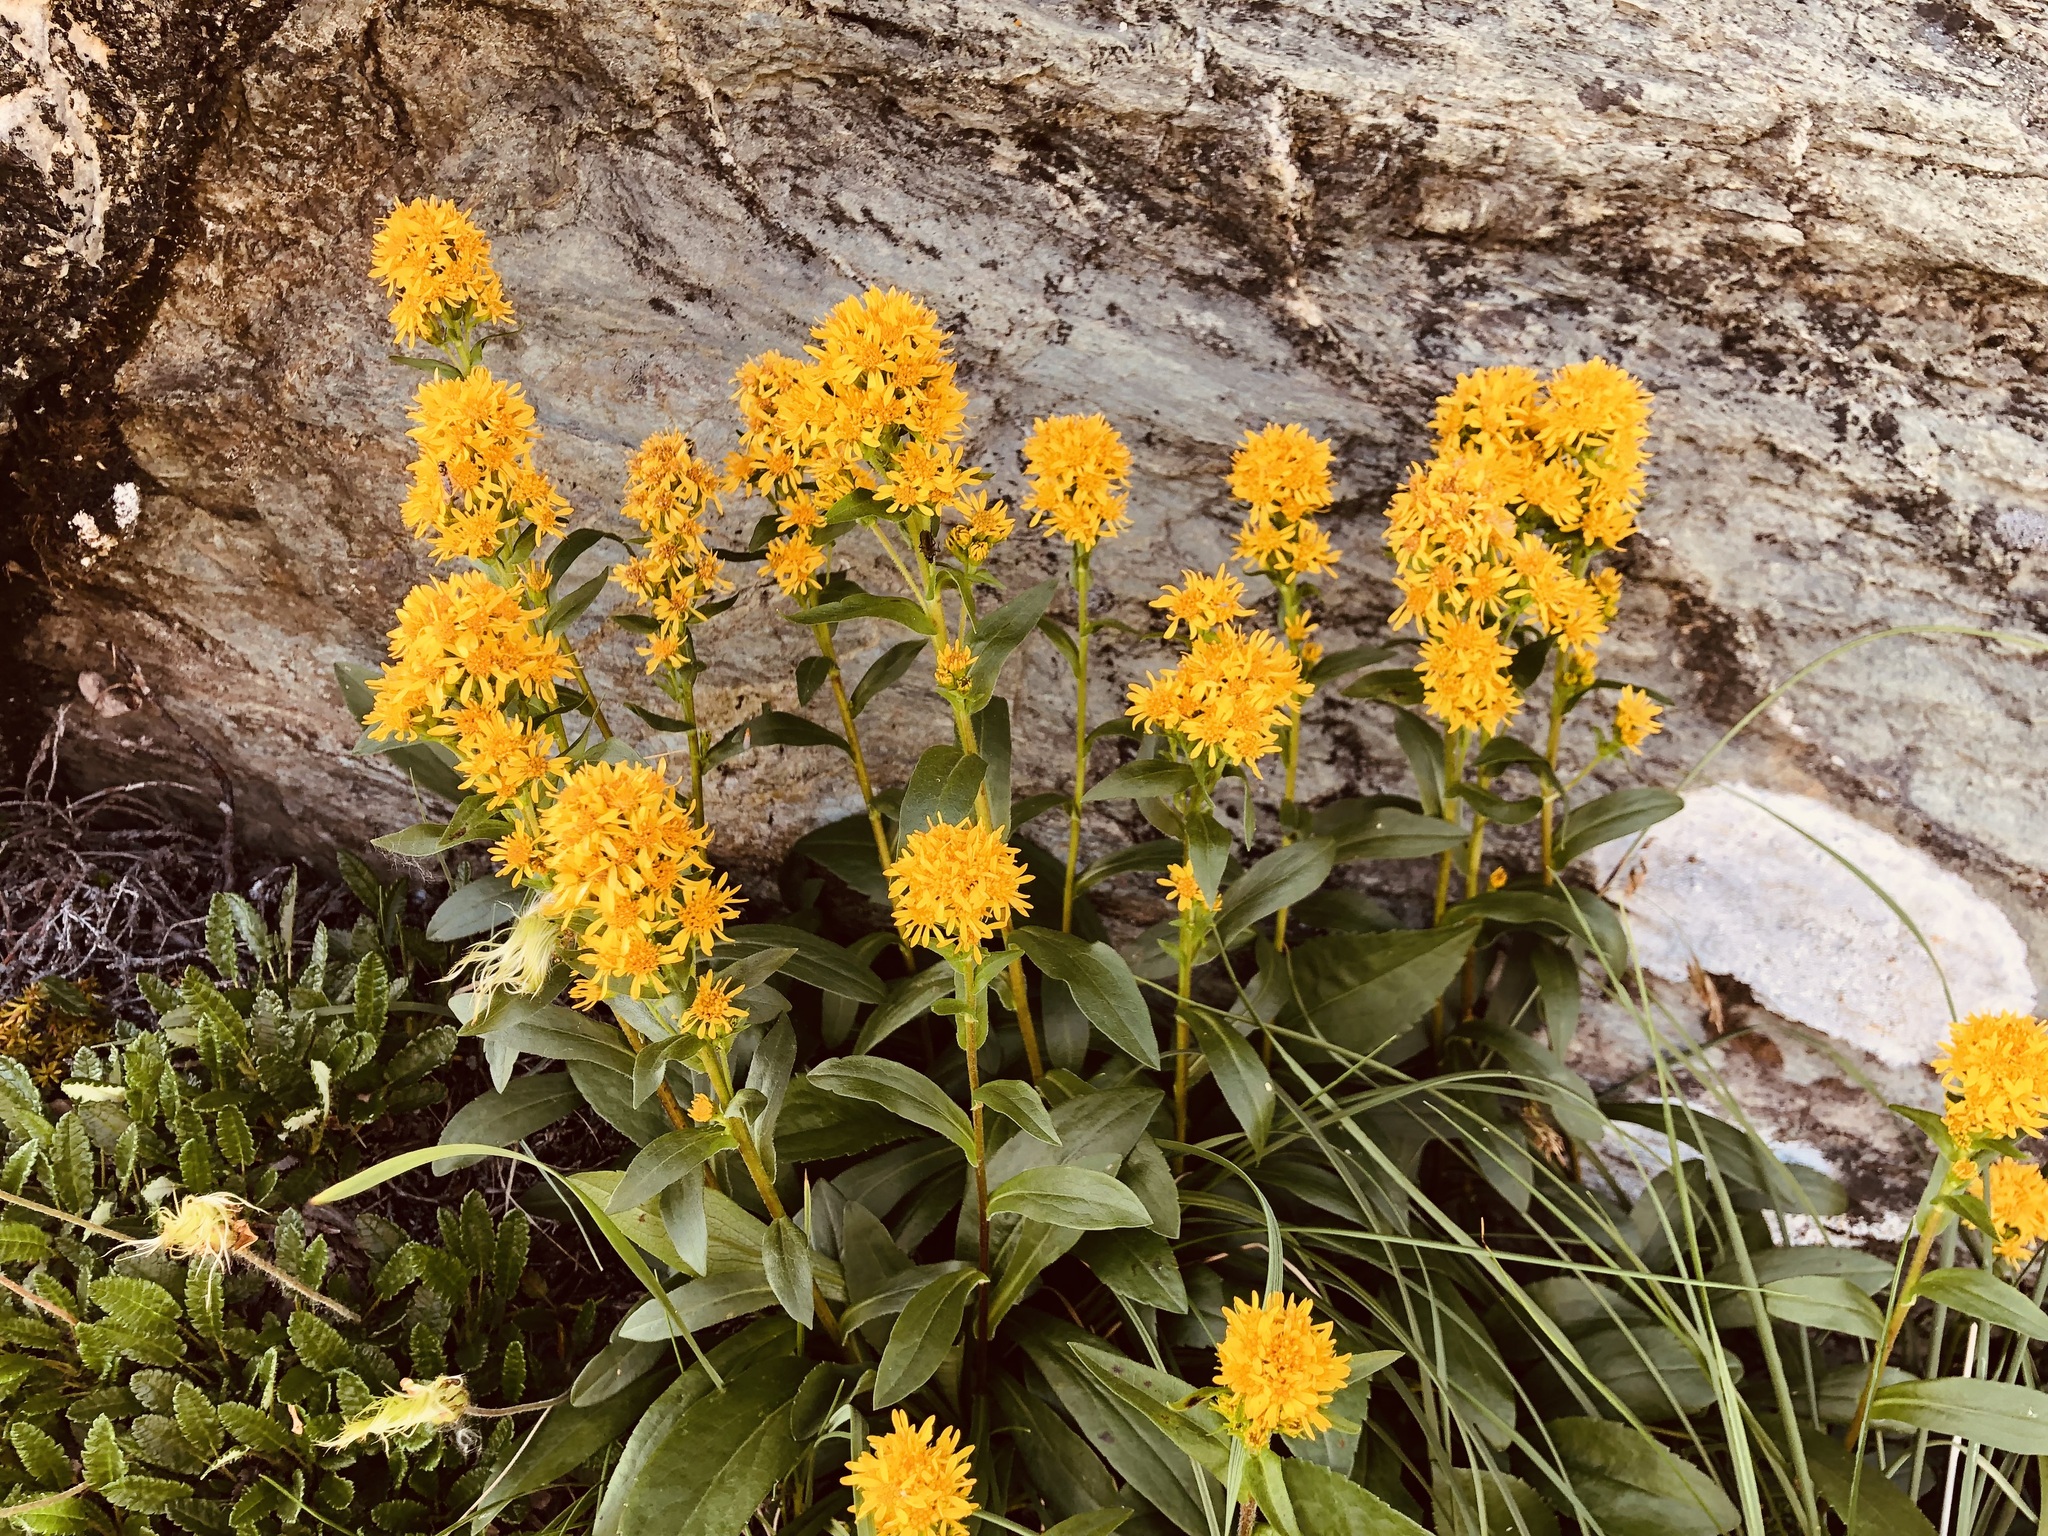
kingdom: Plantae
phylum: Tracheophyta
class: Magnoliopsida
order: Asterales
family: Asteraceae
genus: Solidago
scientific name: Solidago multiradiata
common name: Northern goldenrod
